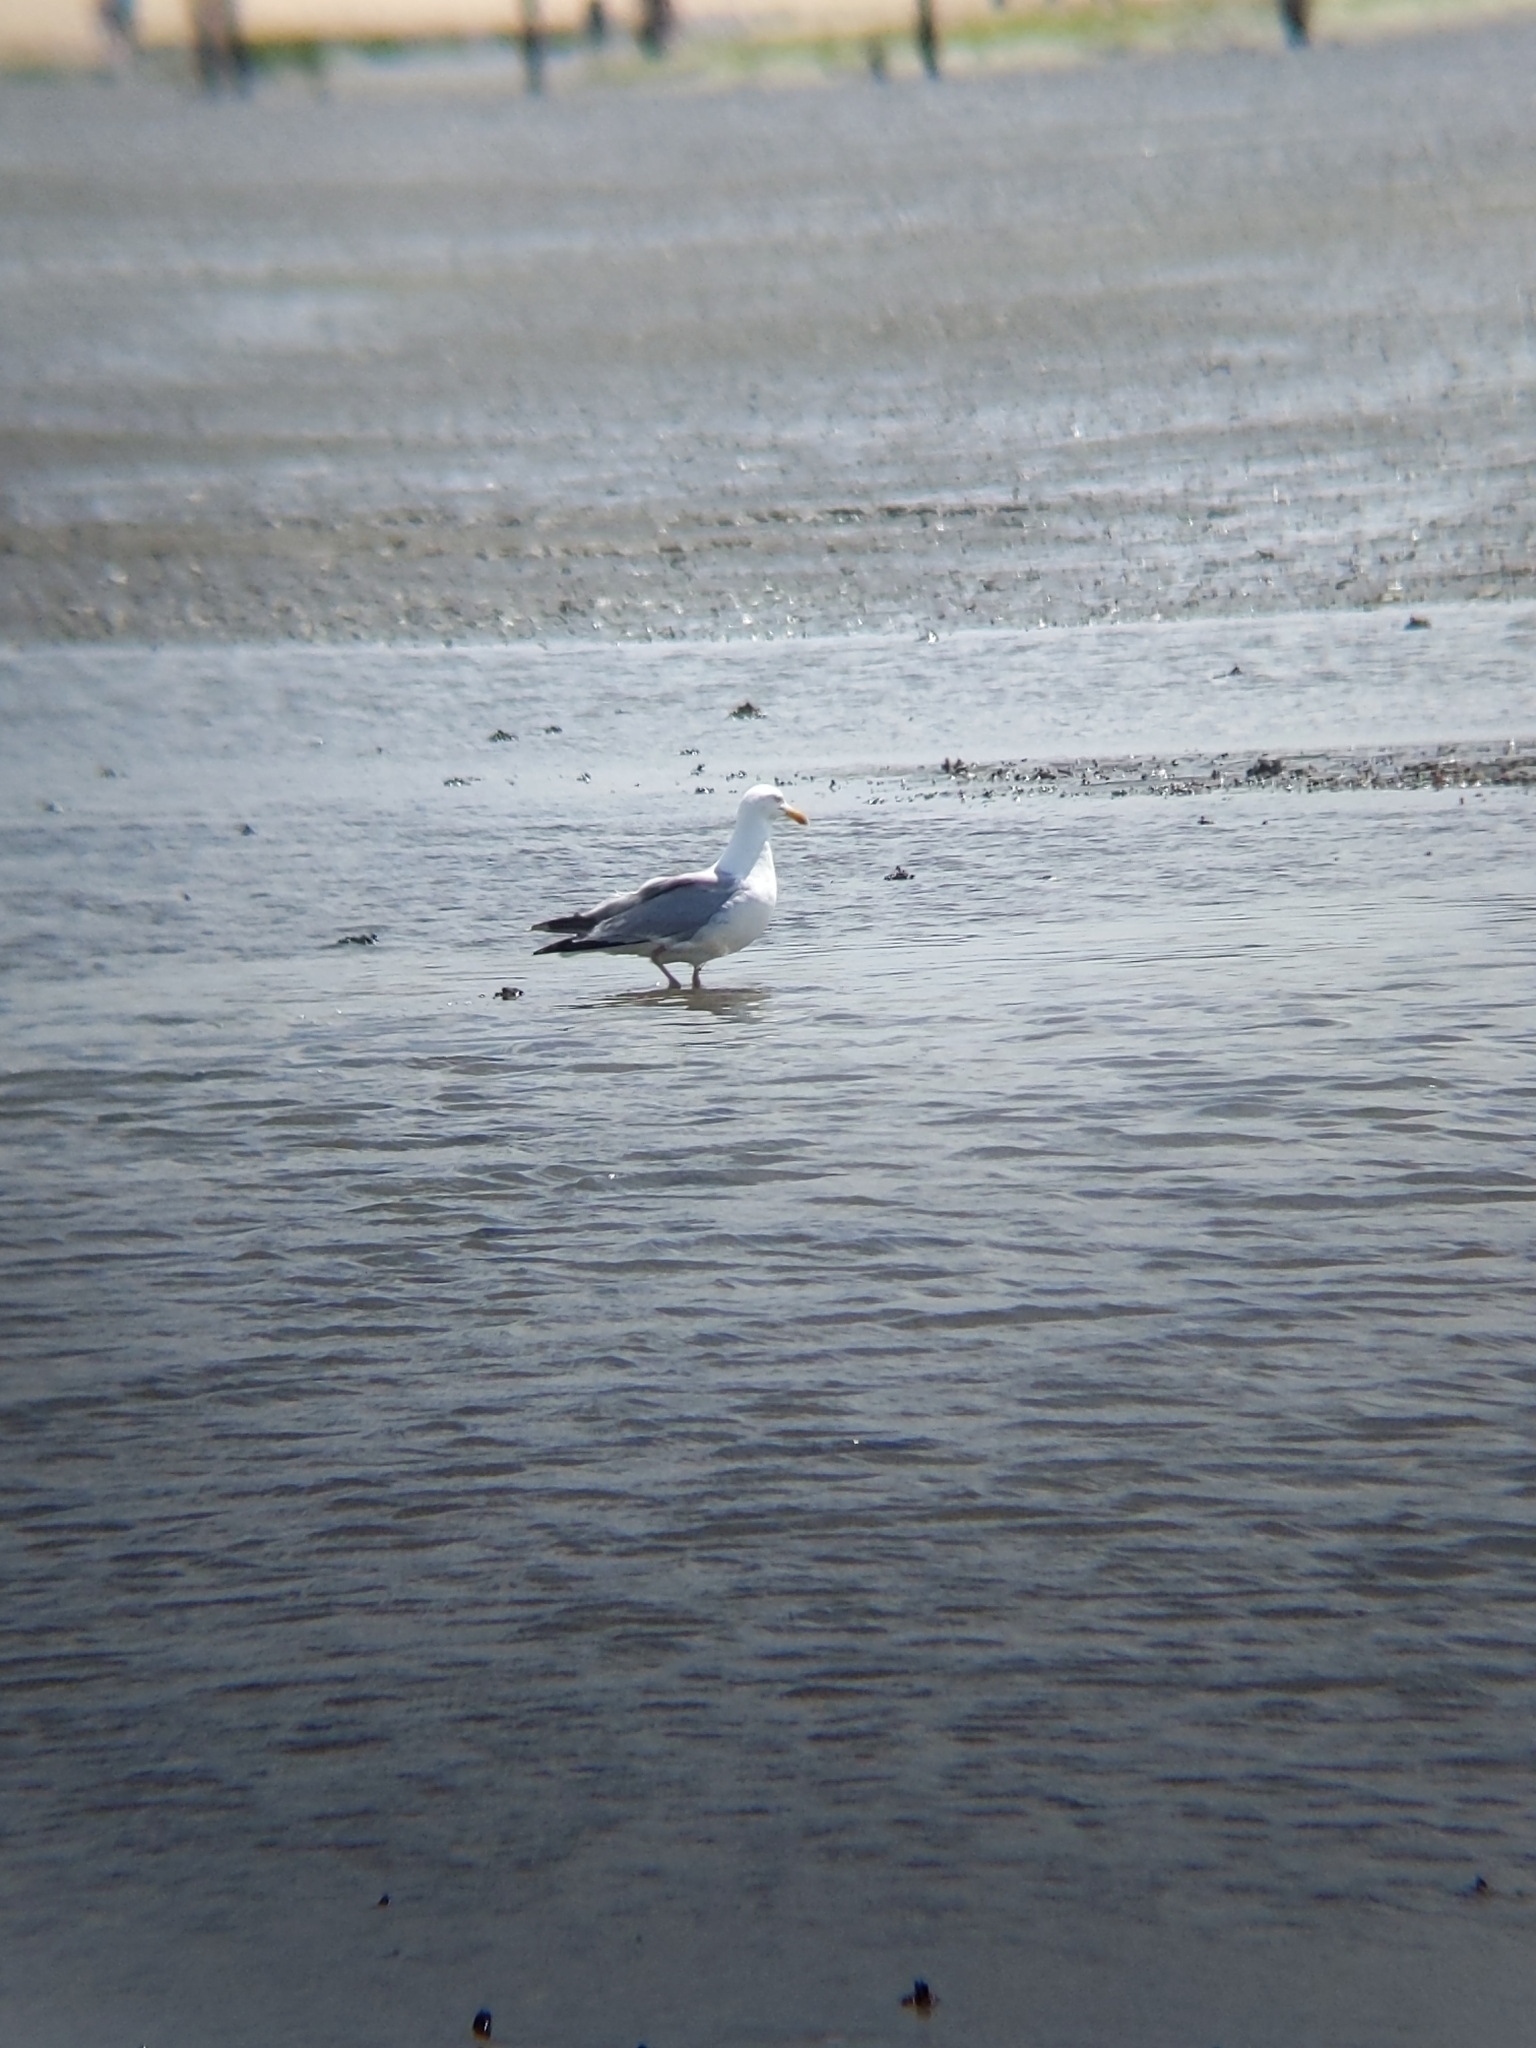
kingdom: Animalia
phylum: Chordata
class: Aves
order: Charadriiformes
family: Laridae
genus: Larus
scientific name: Larus argentatus
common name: Herring gull
